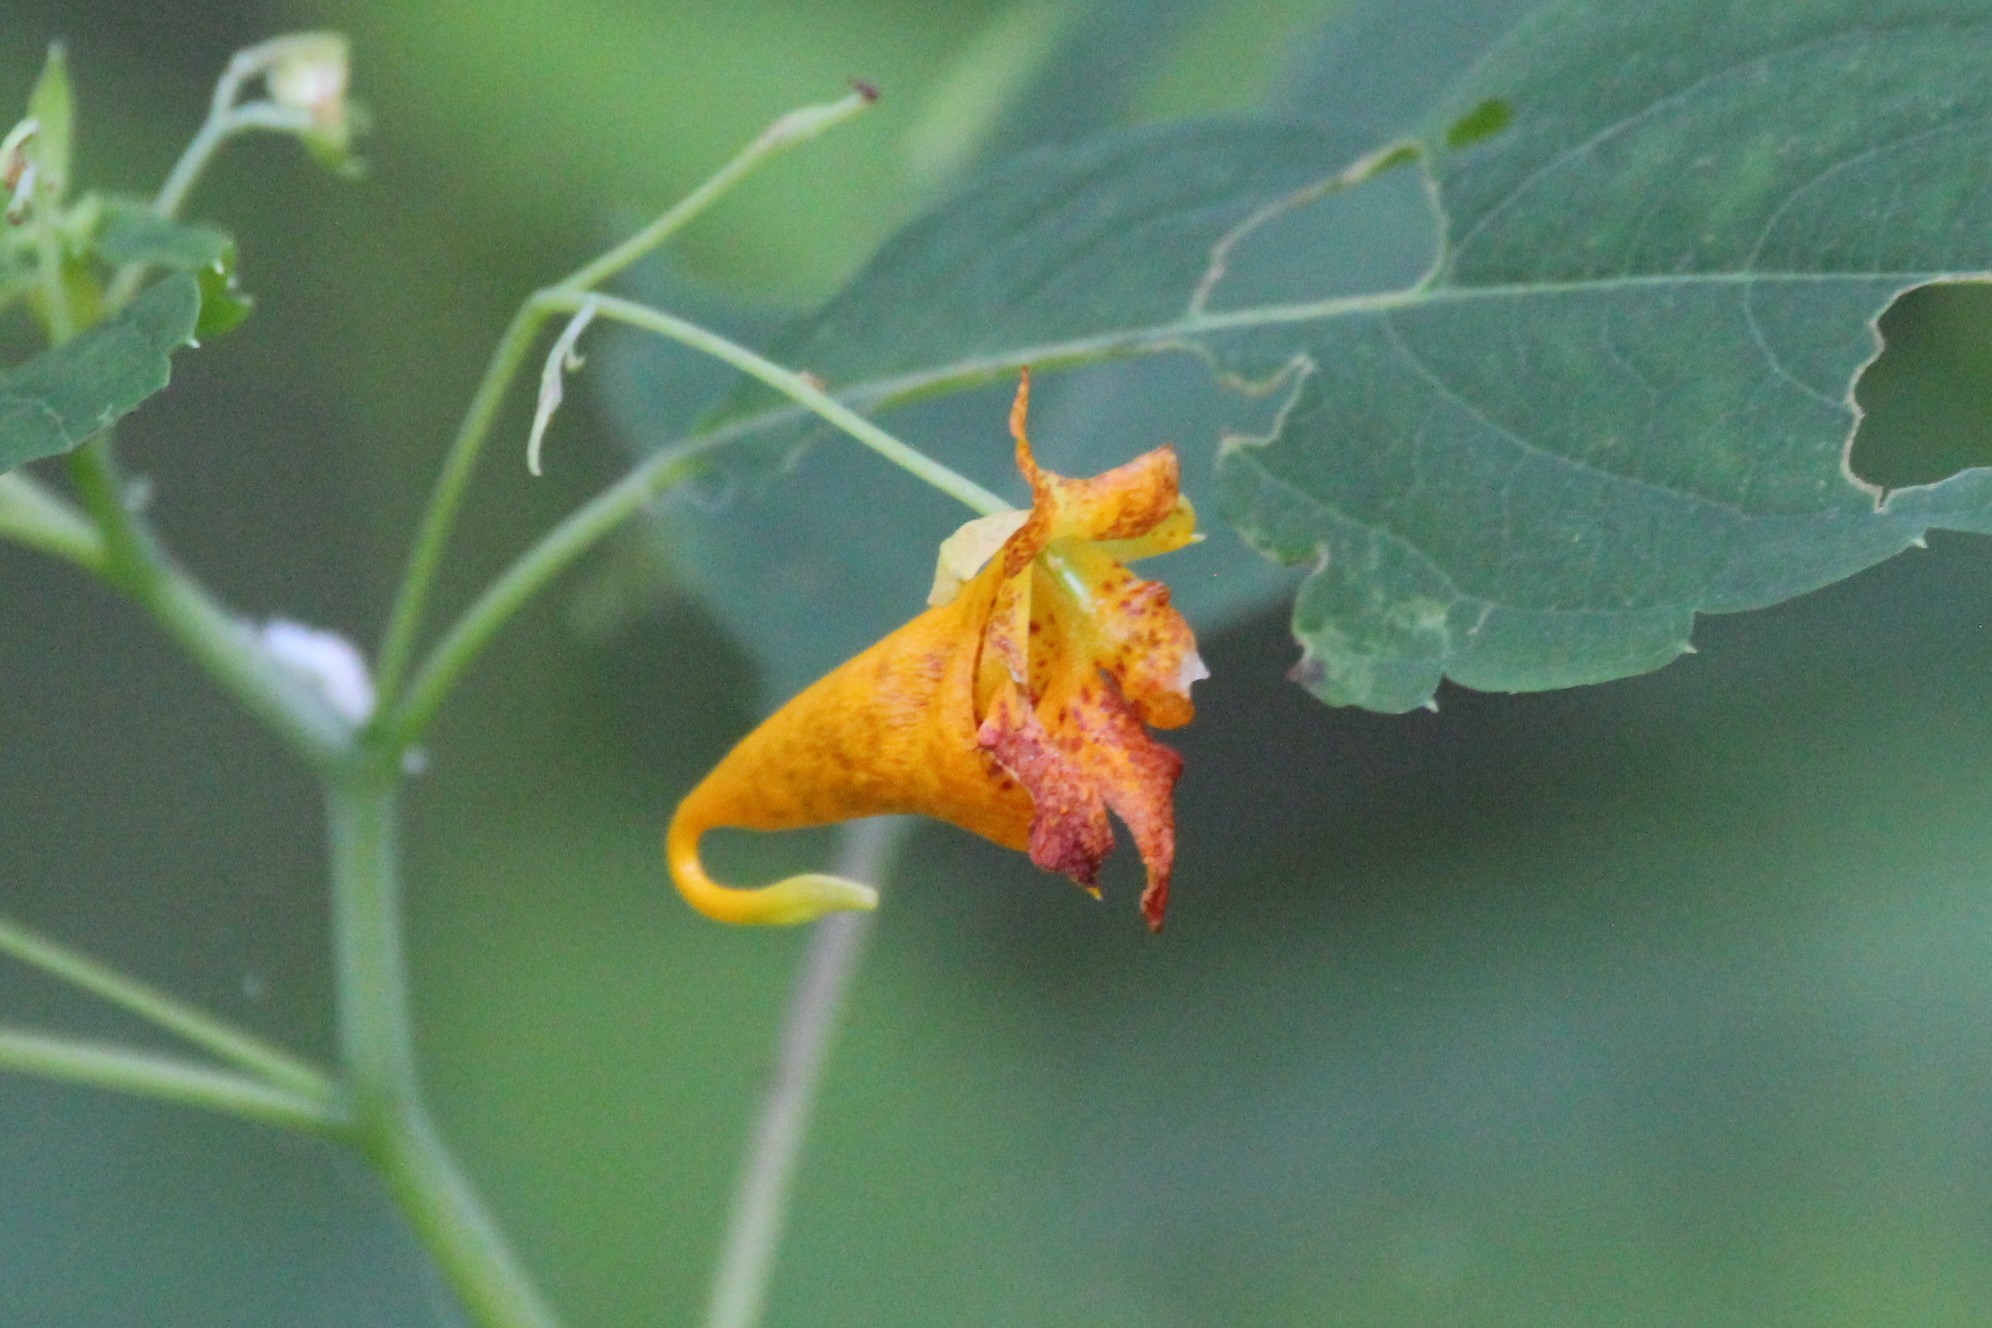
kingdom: Plantae
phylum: Tracheophyta
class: Magnoliopsida
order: Ericales
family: Balsaminaceae
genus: Impatiens
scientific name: Impatiens capensis
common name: Orange balsam
